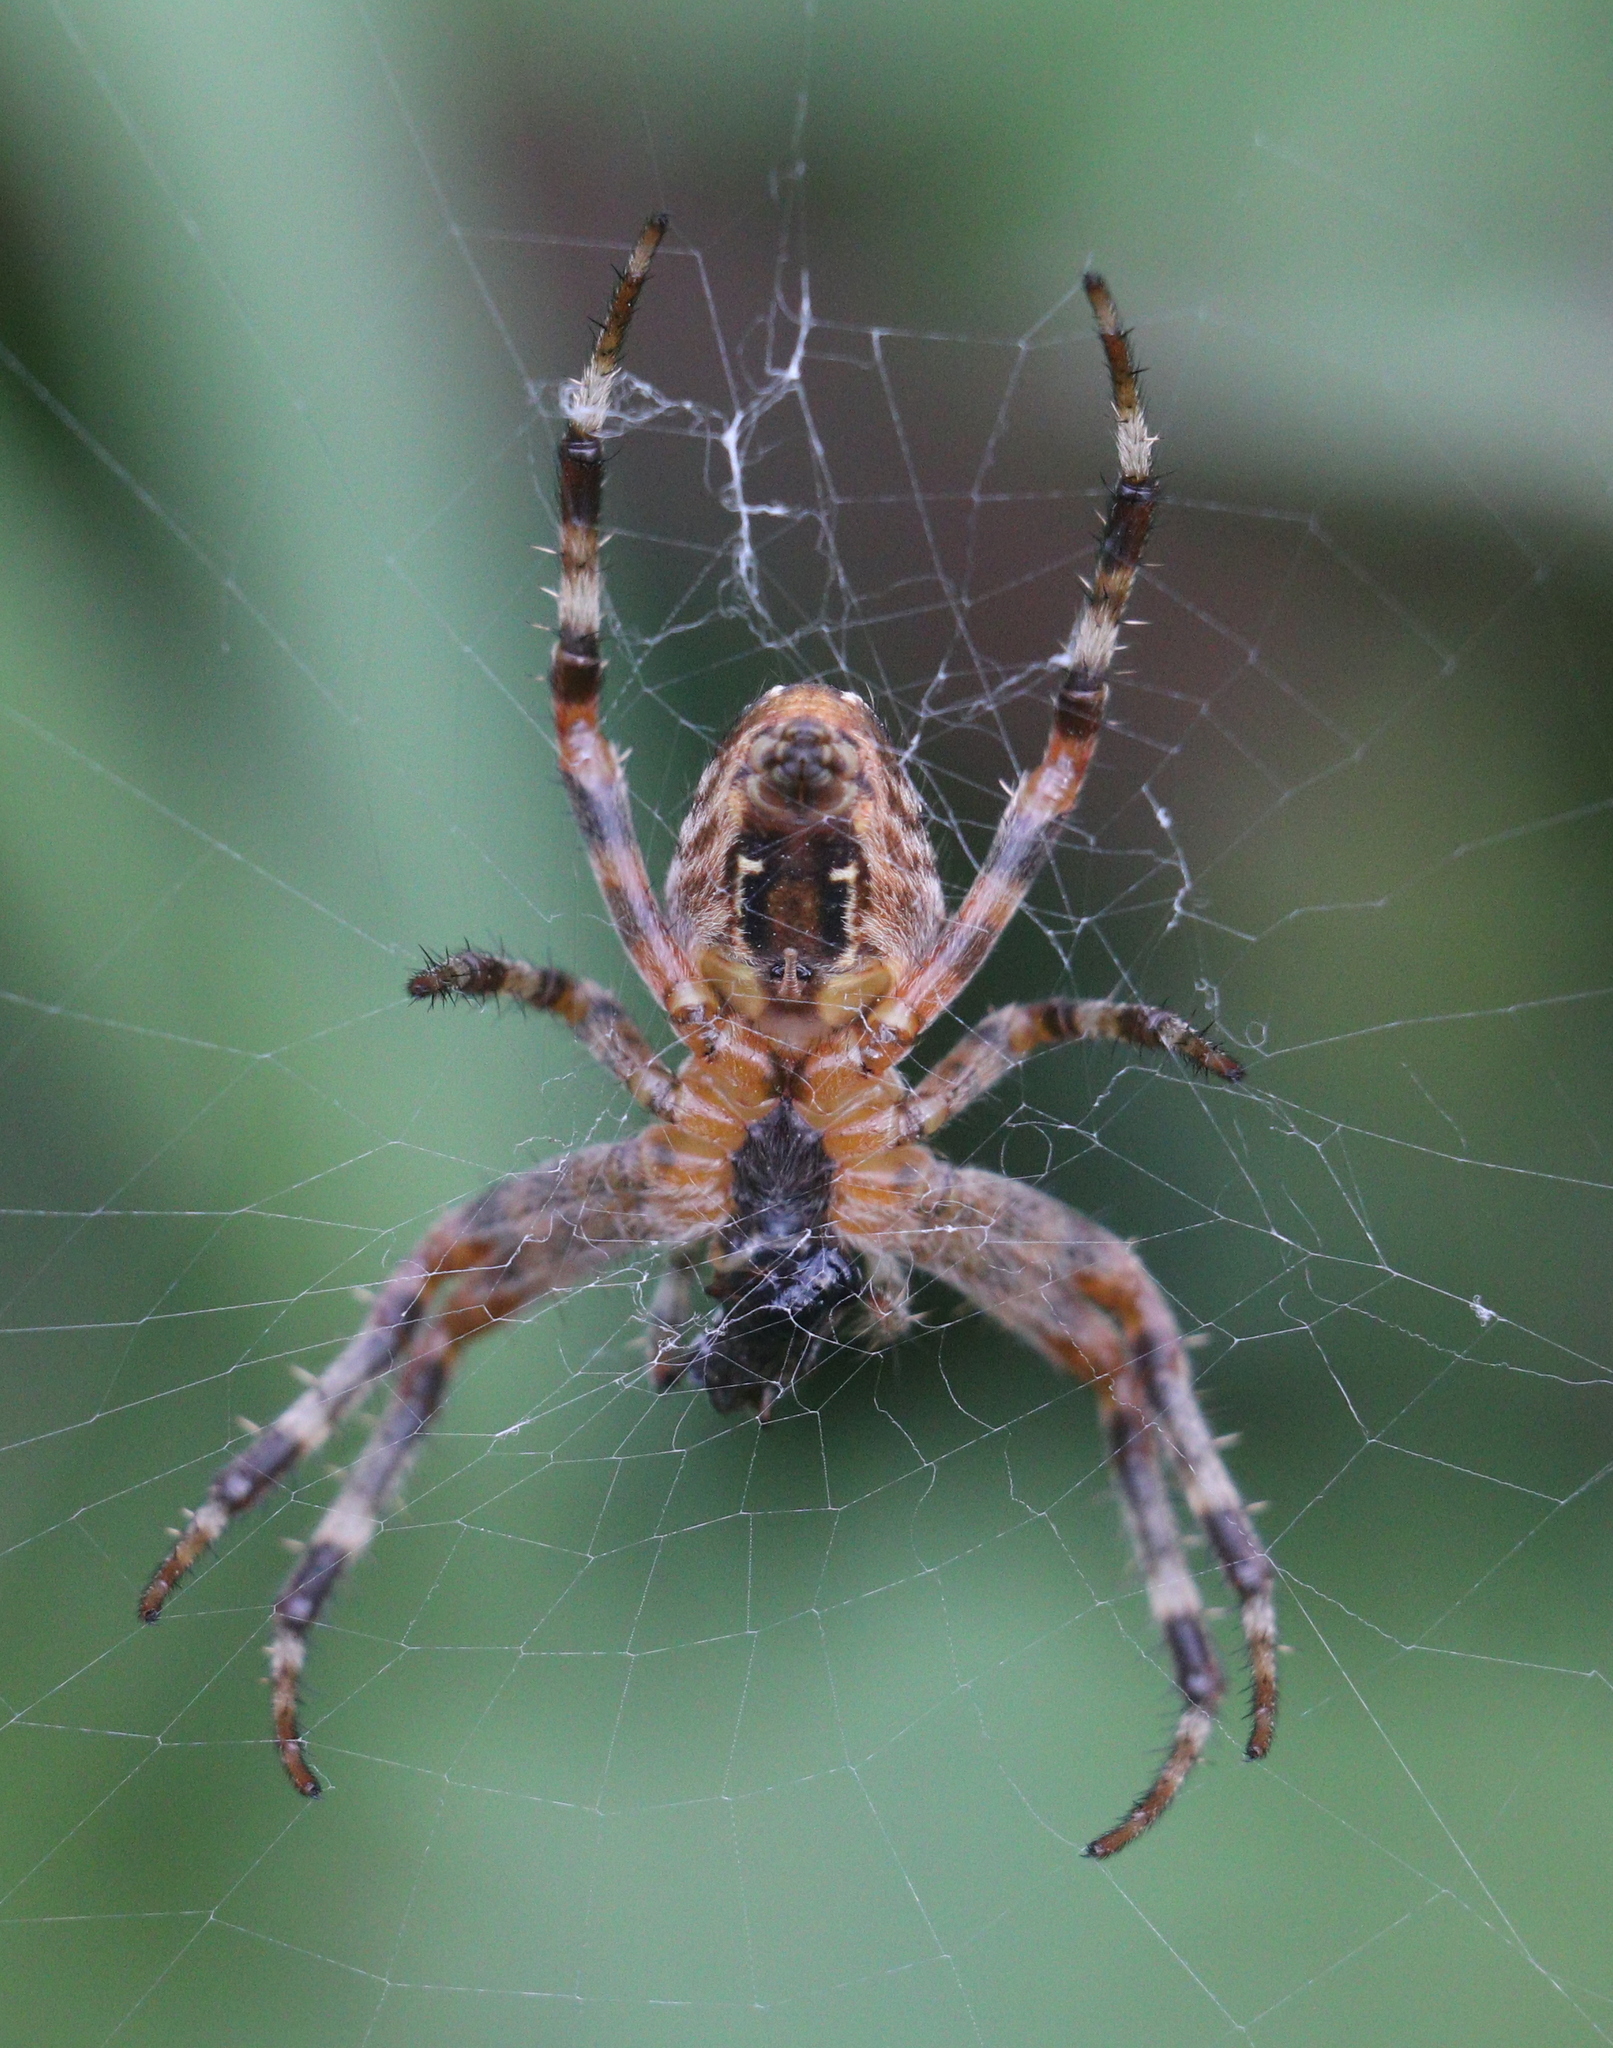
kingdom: Animalia
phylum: Arthropoda
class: Arachnida
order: Araneae
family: Araneidae
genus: Araneus
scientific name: Araneus diadematus
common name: Cross orbweaver
